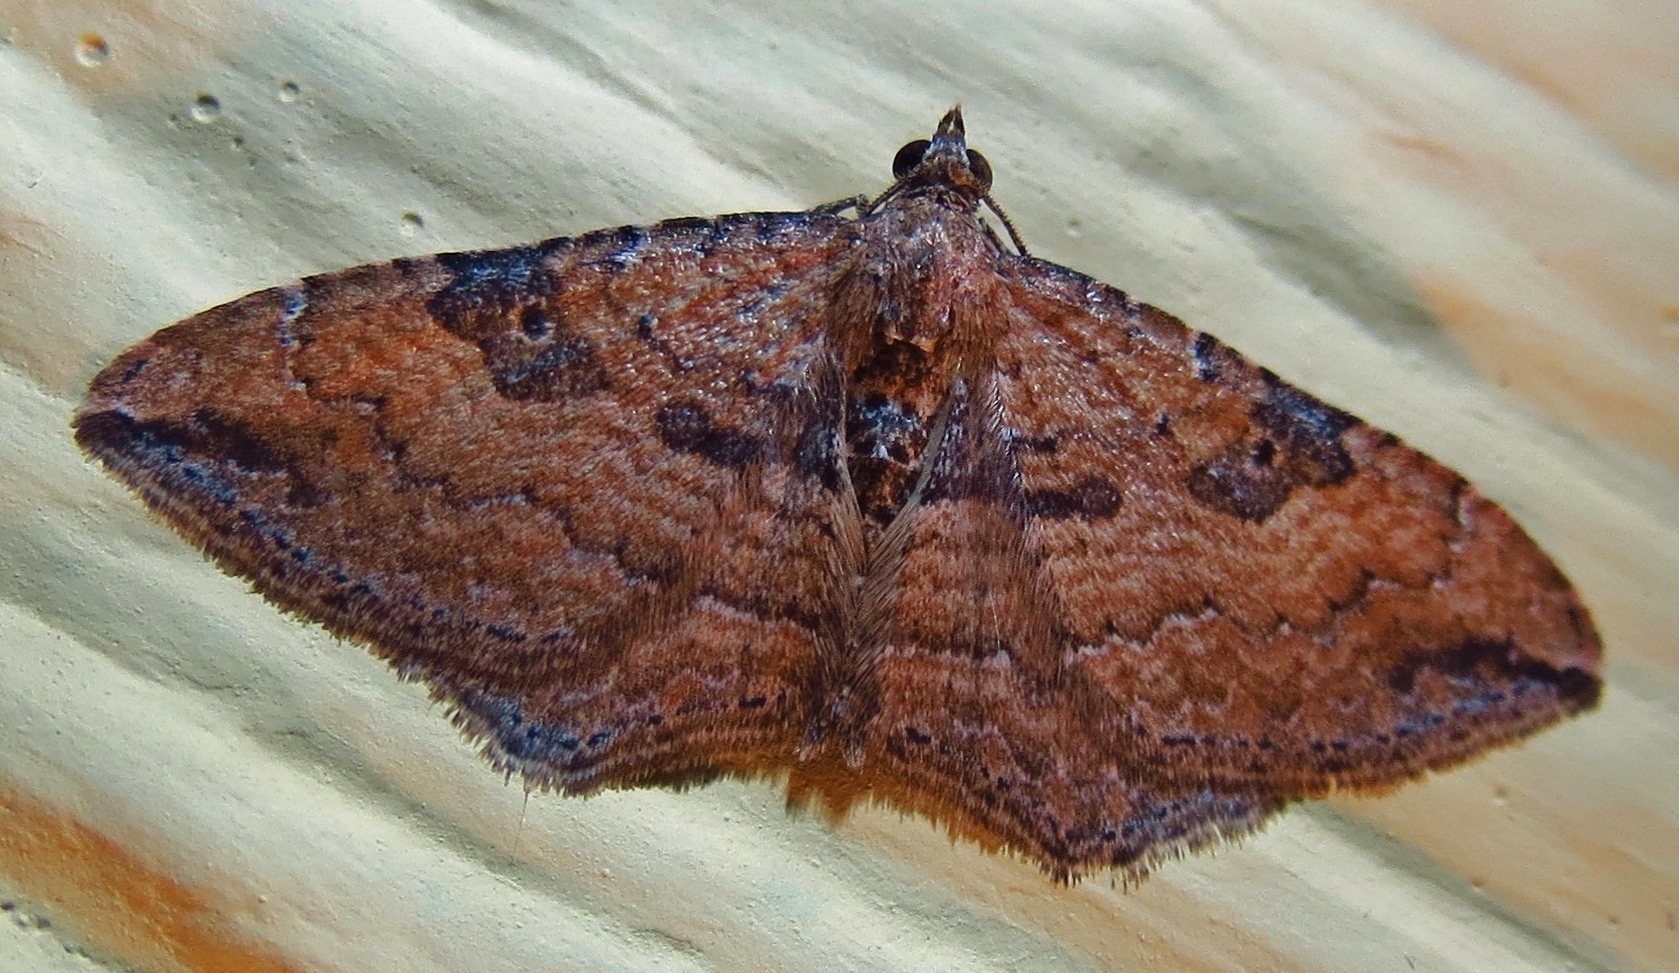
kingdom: Animalia
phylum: Arthropoda
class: Insecta
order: Lepidoptera
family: Geometridae
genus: Orthonama
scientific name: Orthonama obstipata
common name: The gem
